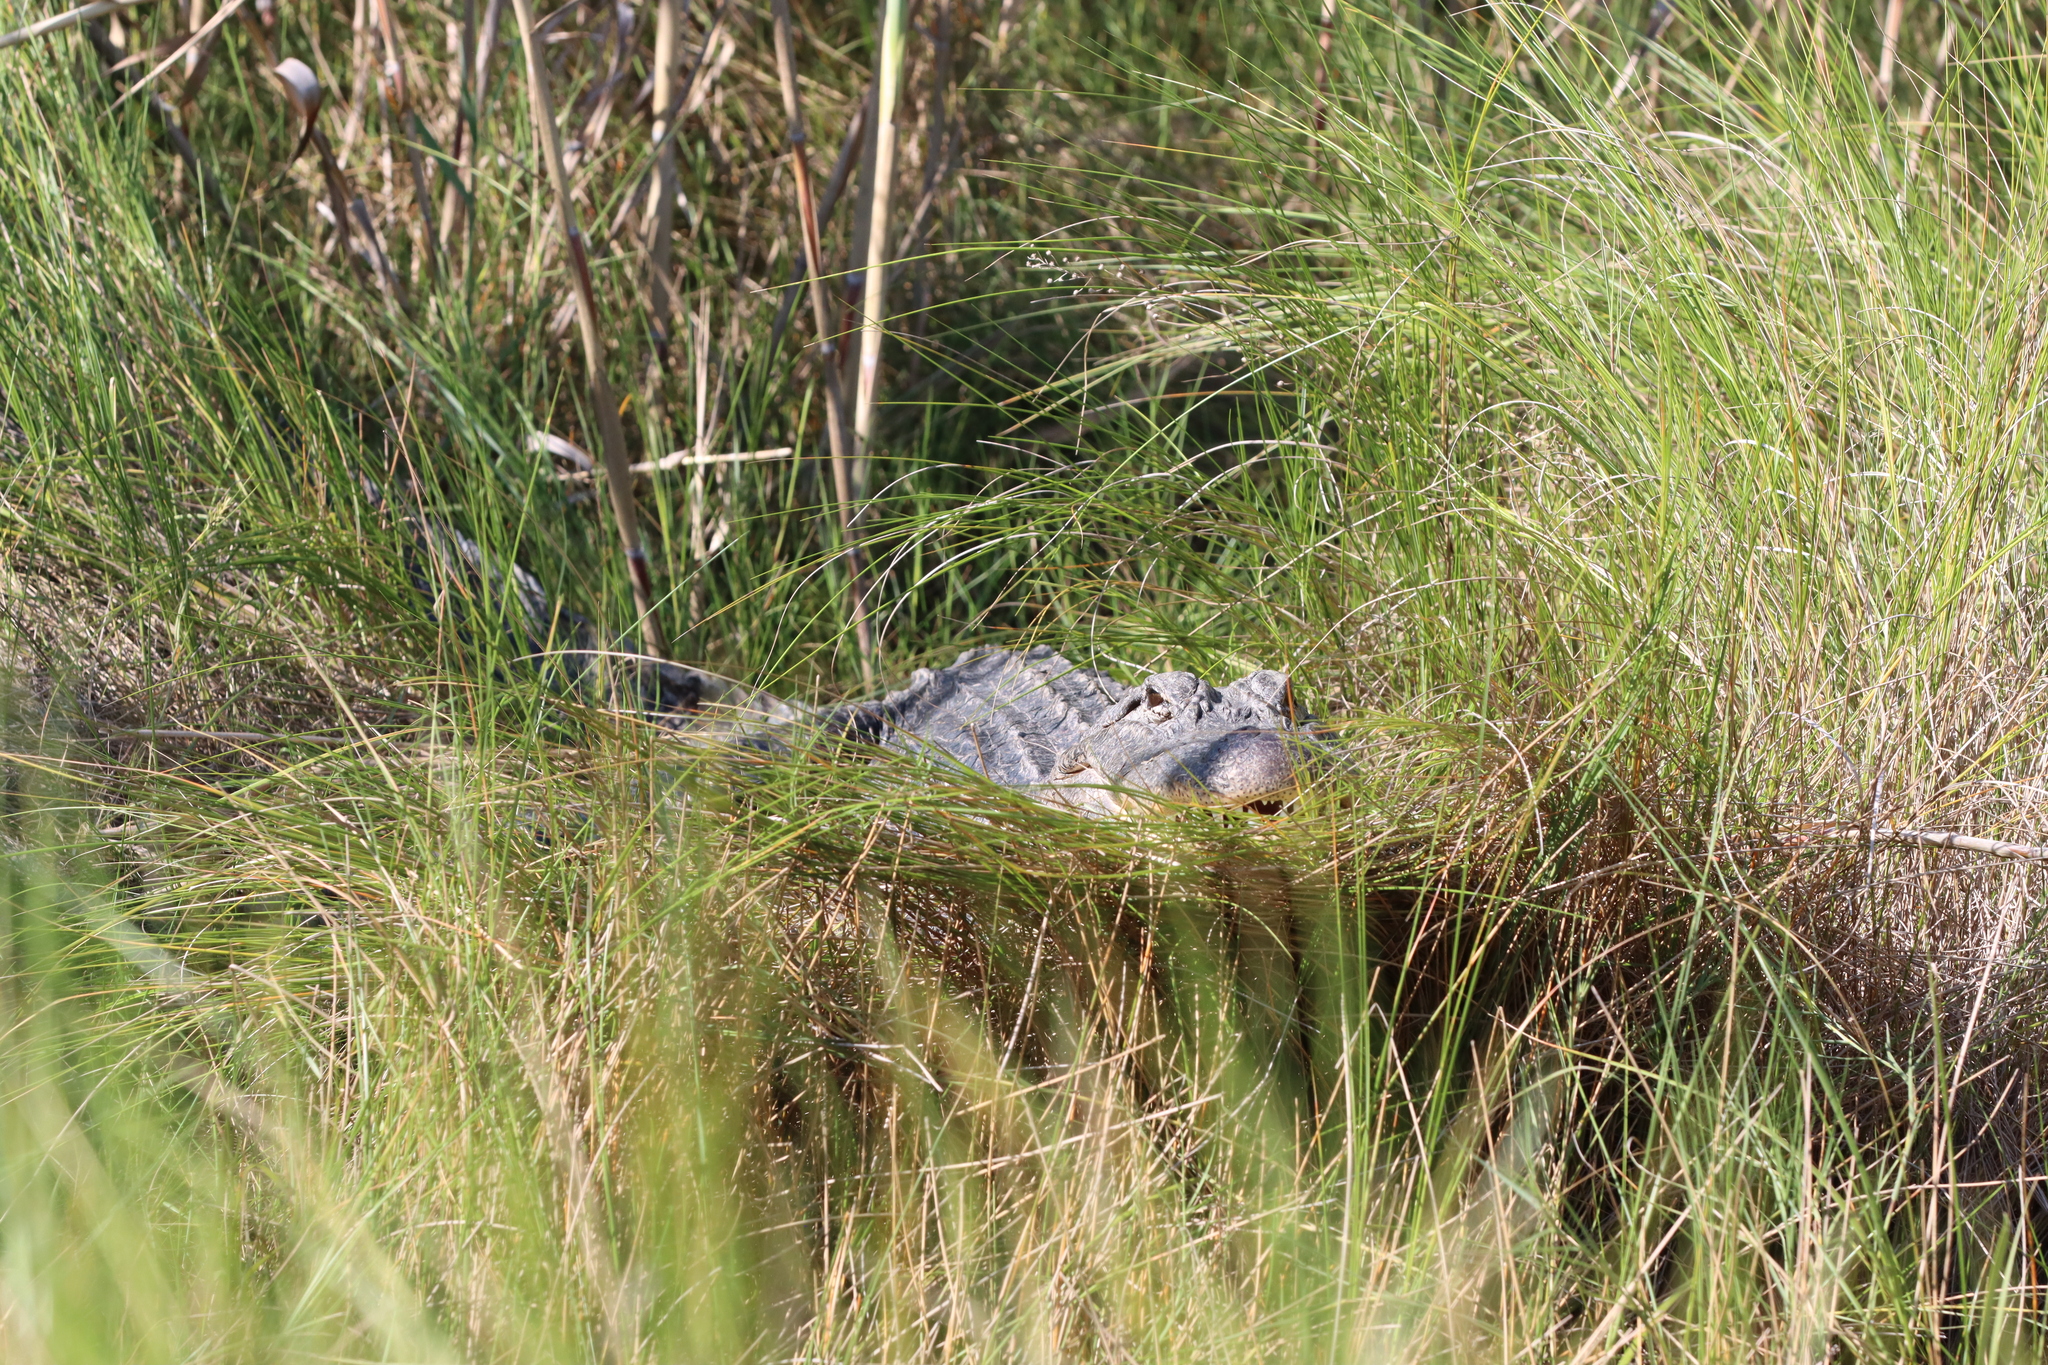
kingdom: Animalia
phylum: Chordata
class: Crocodylia
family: Alligatoridae
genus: Alligator
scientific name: Alligator mississippiensis
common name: American alligator
